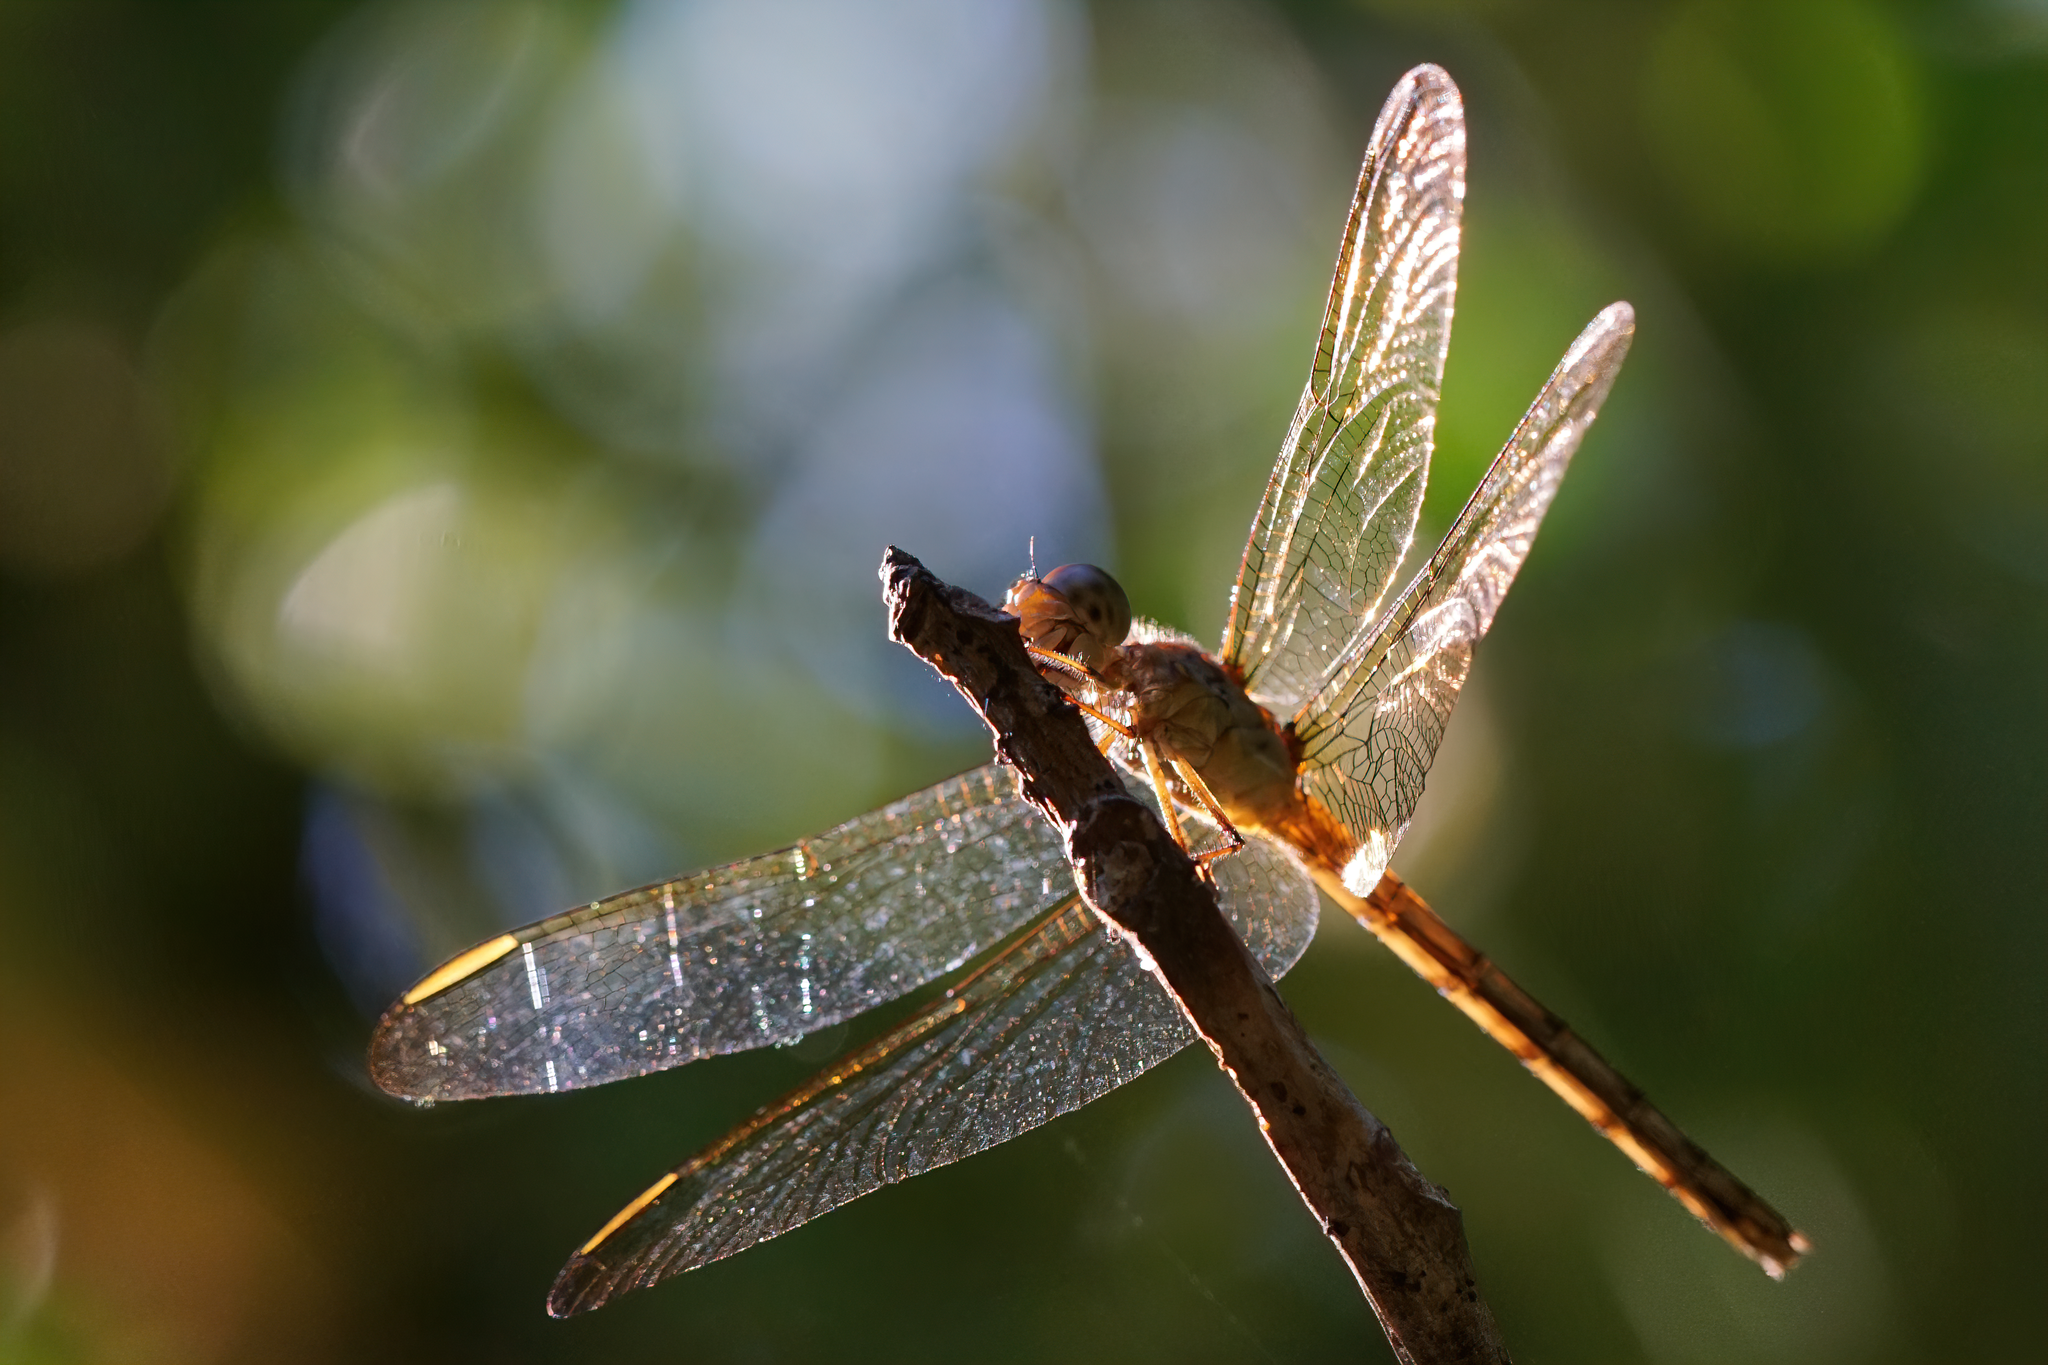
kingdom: Animalia
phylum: Arthropoda
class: Insecta
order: Odonata
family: Libellulidae
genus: Erythrodiplax
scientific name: Erythrodiplax umbrata
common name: Band-winged dragonlet
